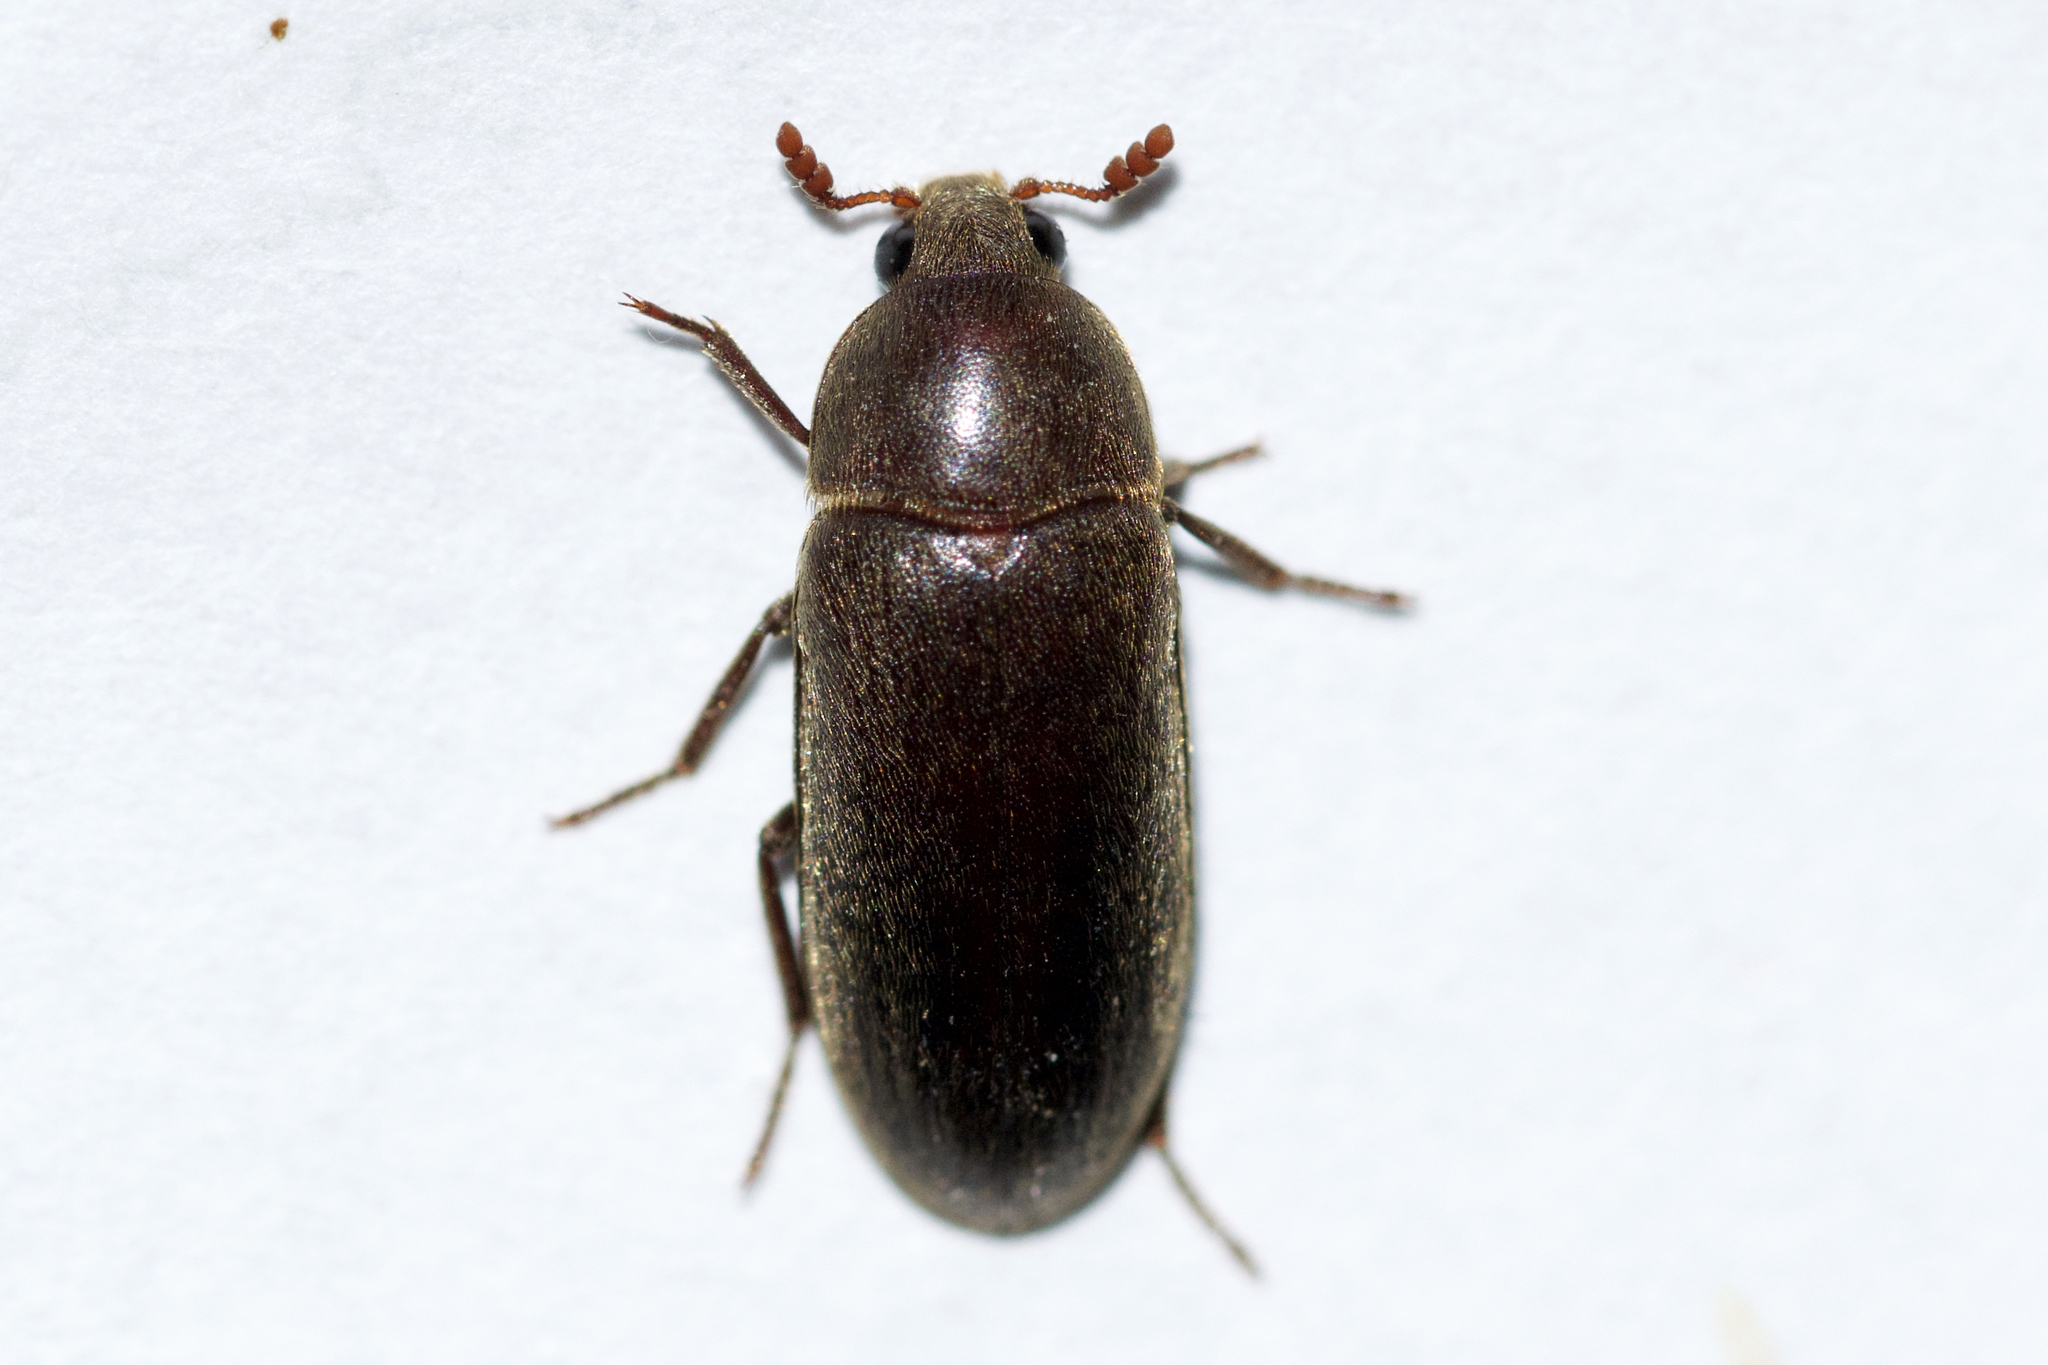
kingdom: Animalia
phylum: Arthropoda
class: Insecta
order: Coleoptera
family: Dermestidae
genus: Dermestes
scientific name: Dermestes nidum
